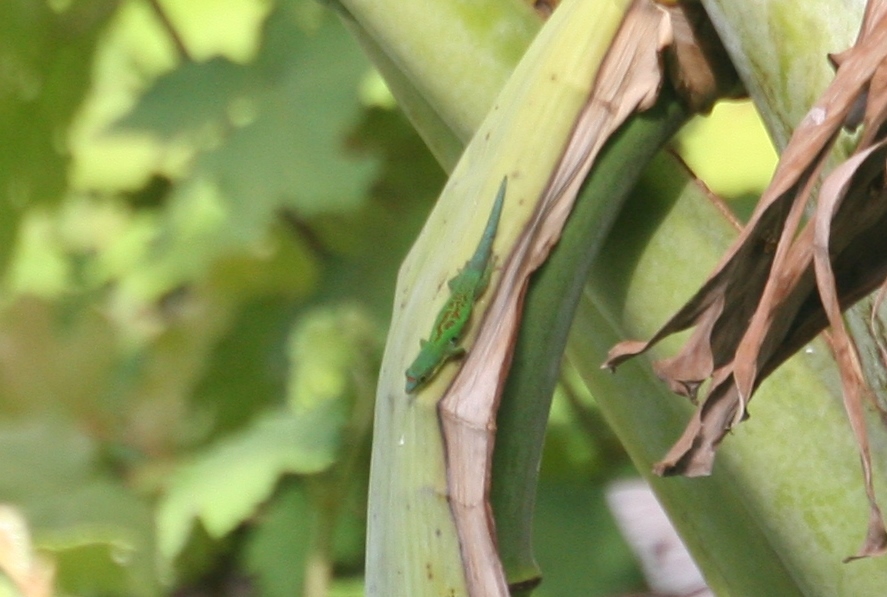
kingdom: Animalia
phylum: Chordata
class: Squamata
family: Gekkonidae
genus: Phelsuma
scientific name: Phelsuma parva
